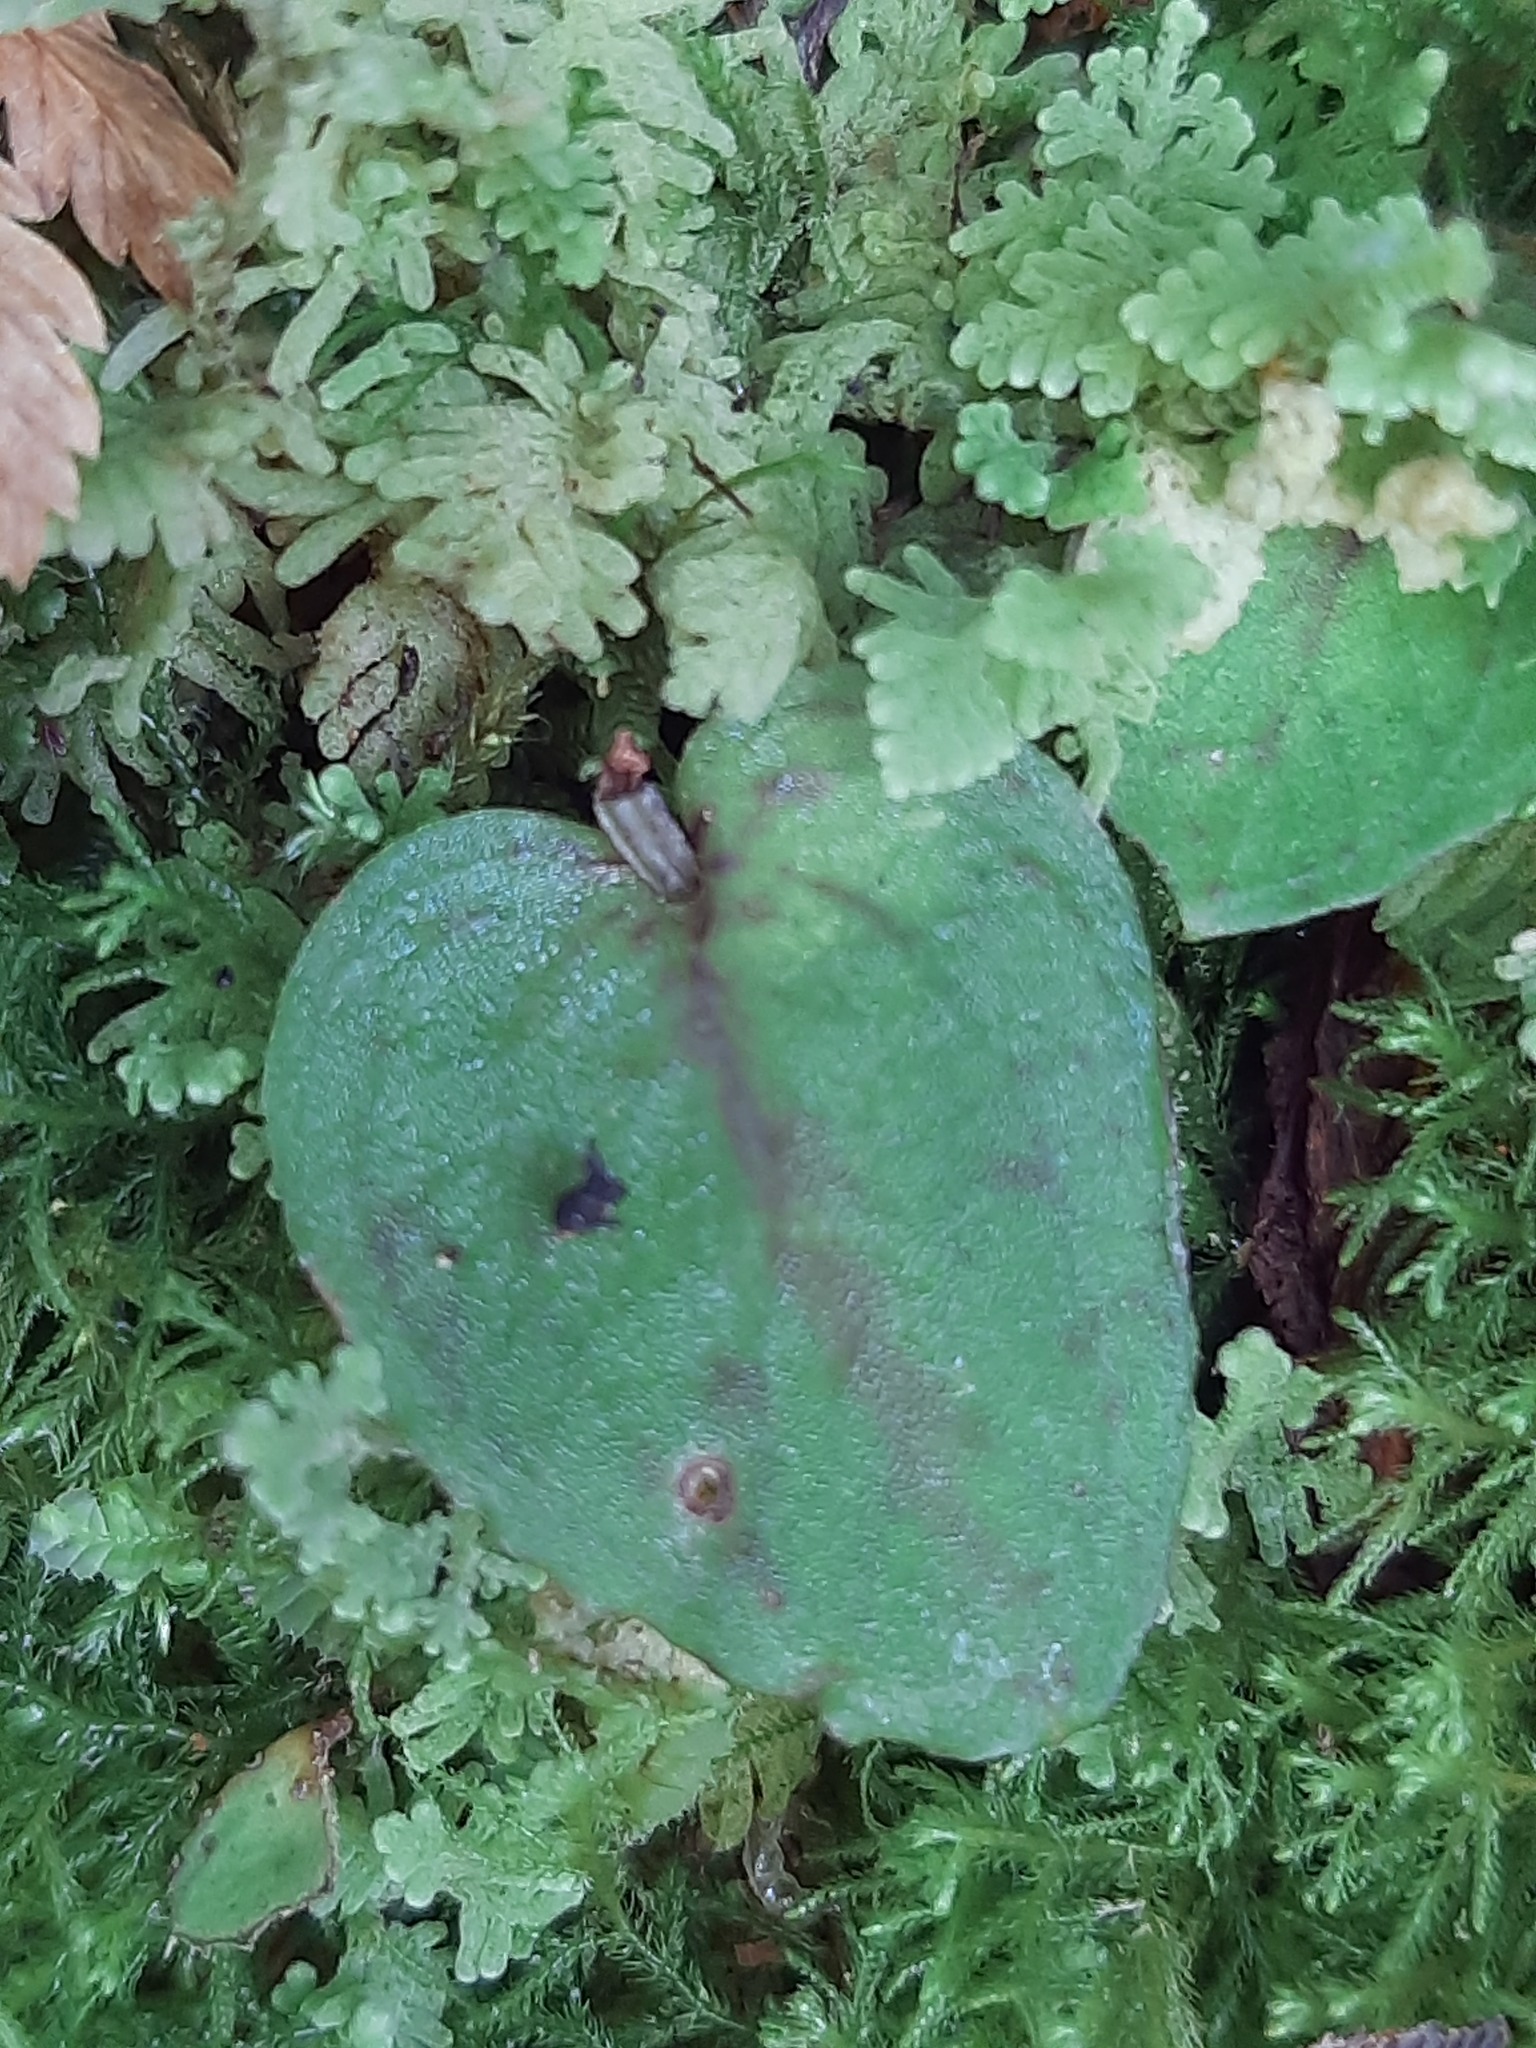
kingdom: Plantae
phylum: Tracheophyta
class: Liliopsida
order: Asparagales
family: Orchidaceae
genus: Corybas
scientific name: Corybas oblongus
